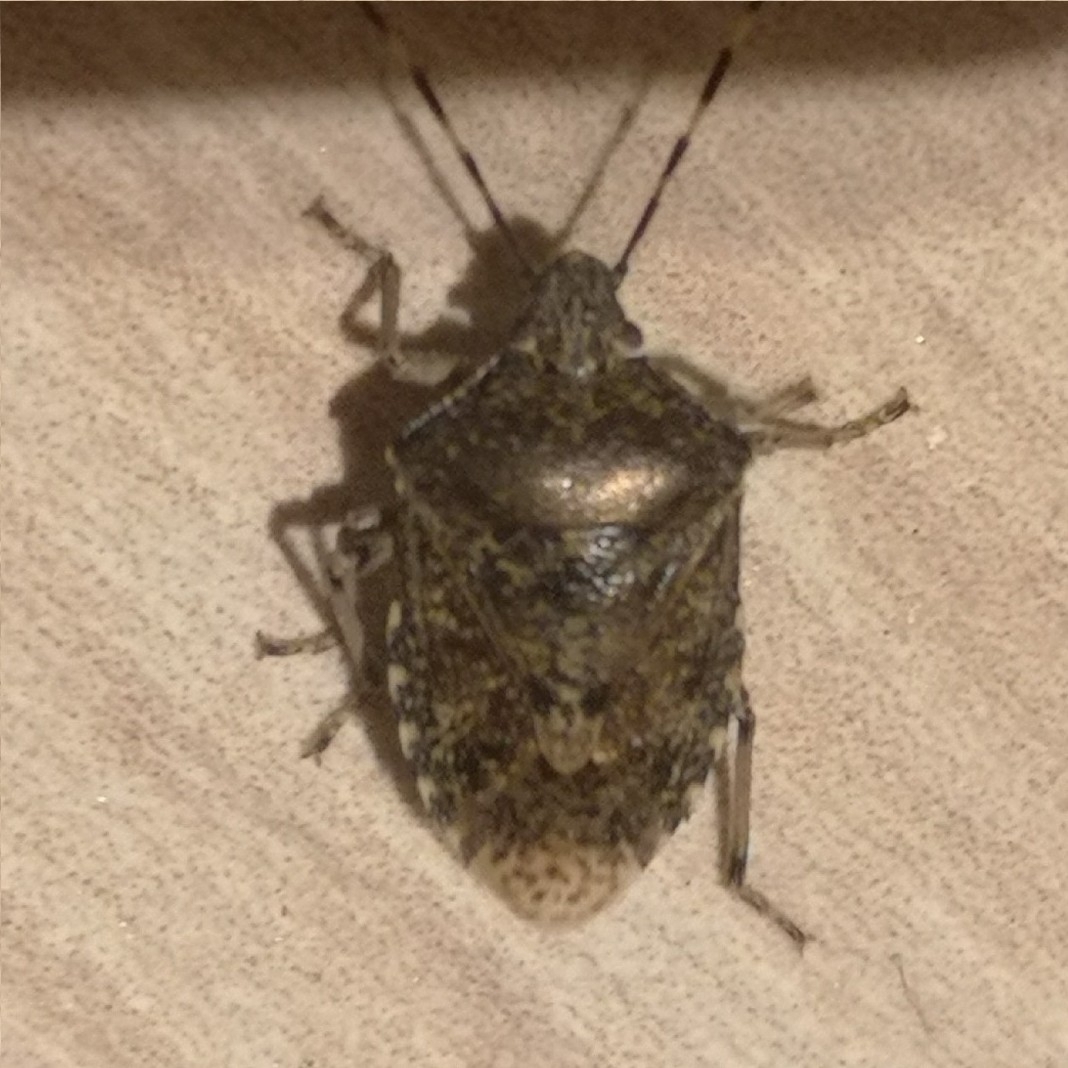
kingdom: Animalia
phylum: Arthropoda
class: Insecta
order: Hemiptera
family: Pentatomidae
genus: Rhaphigaster
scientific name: Rhaphigaster nebulosa
